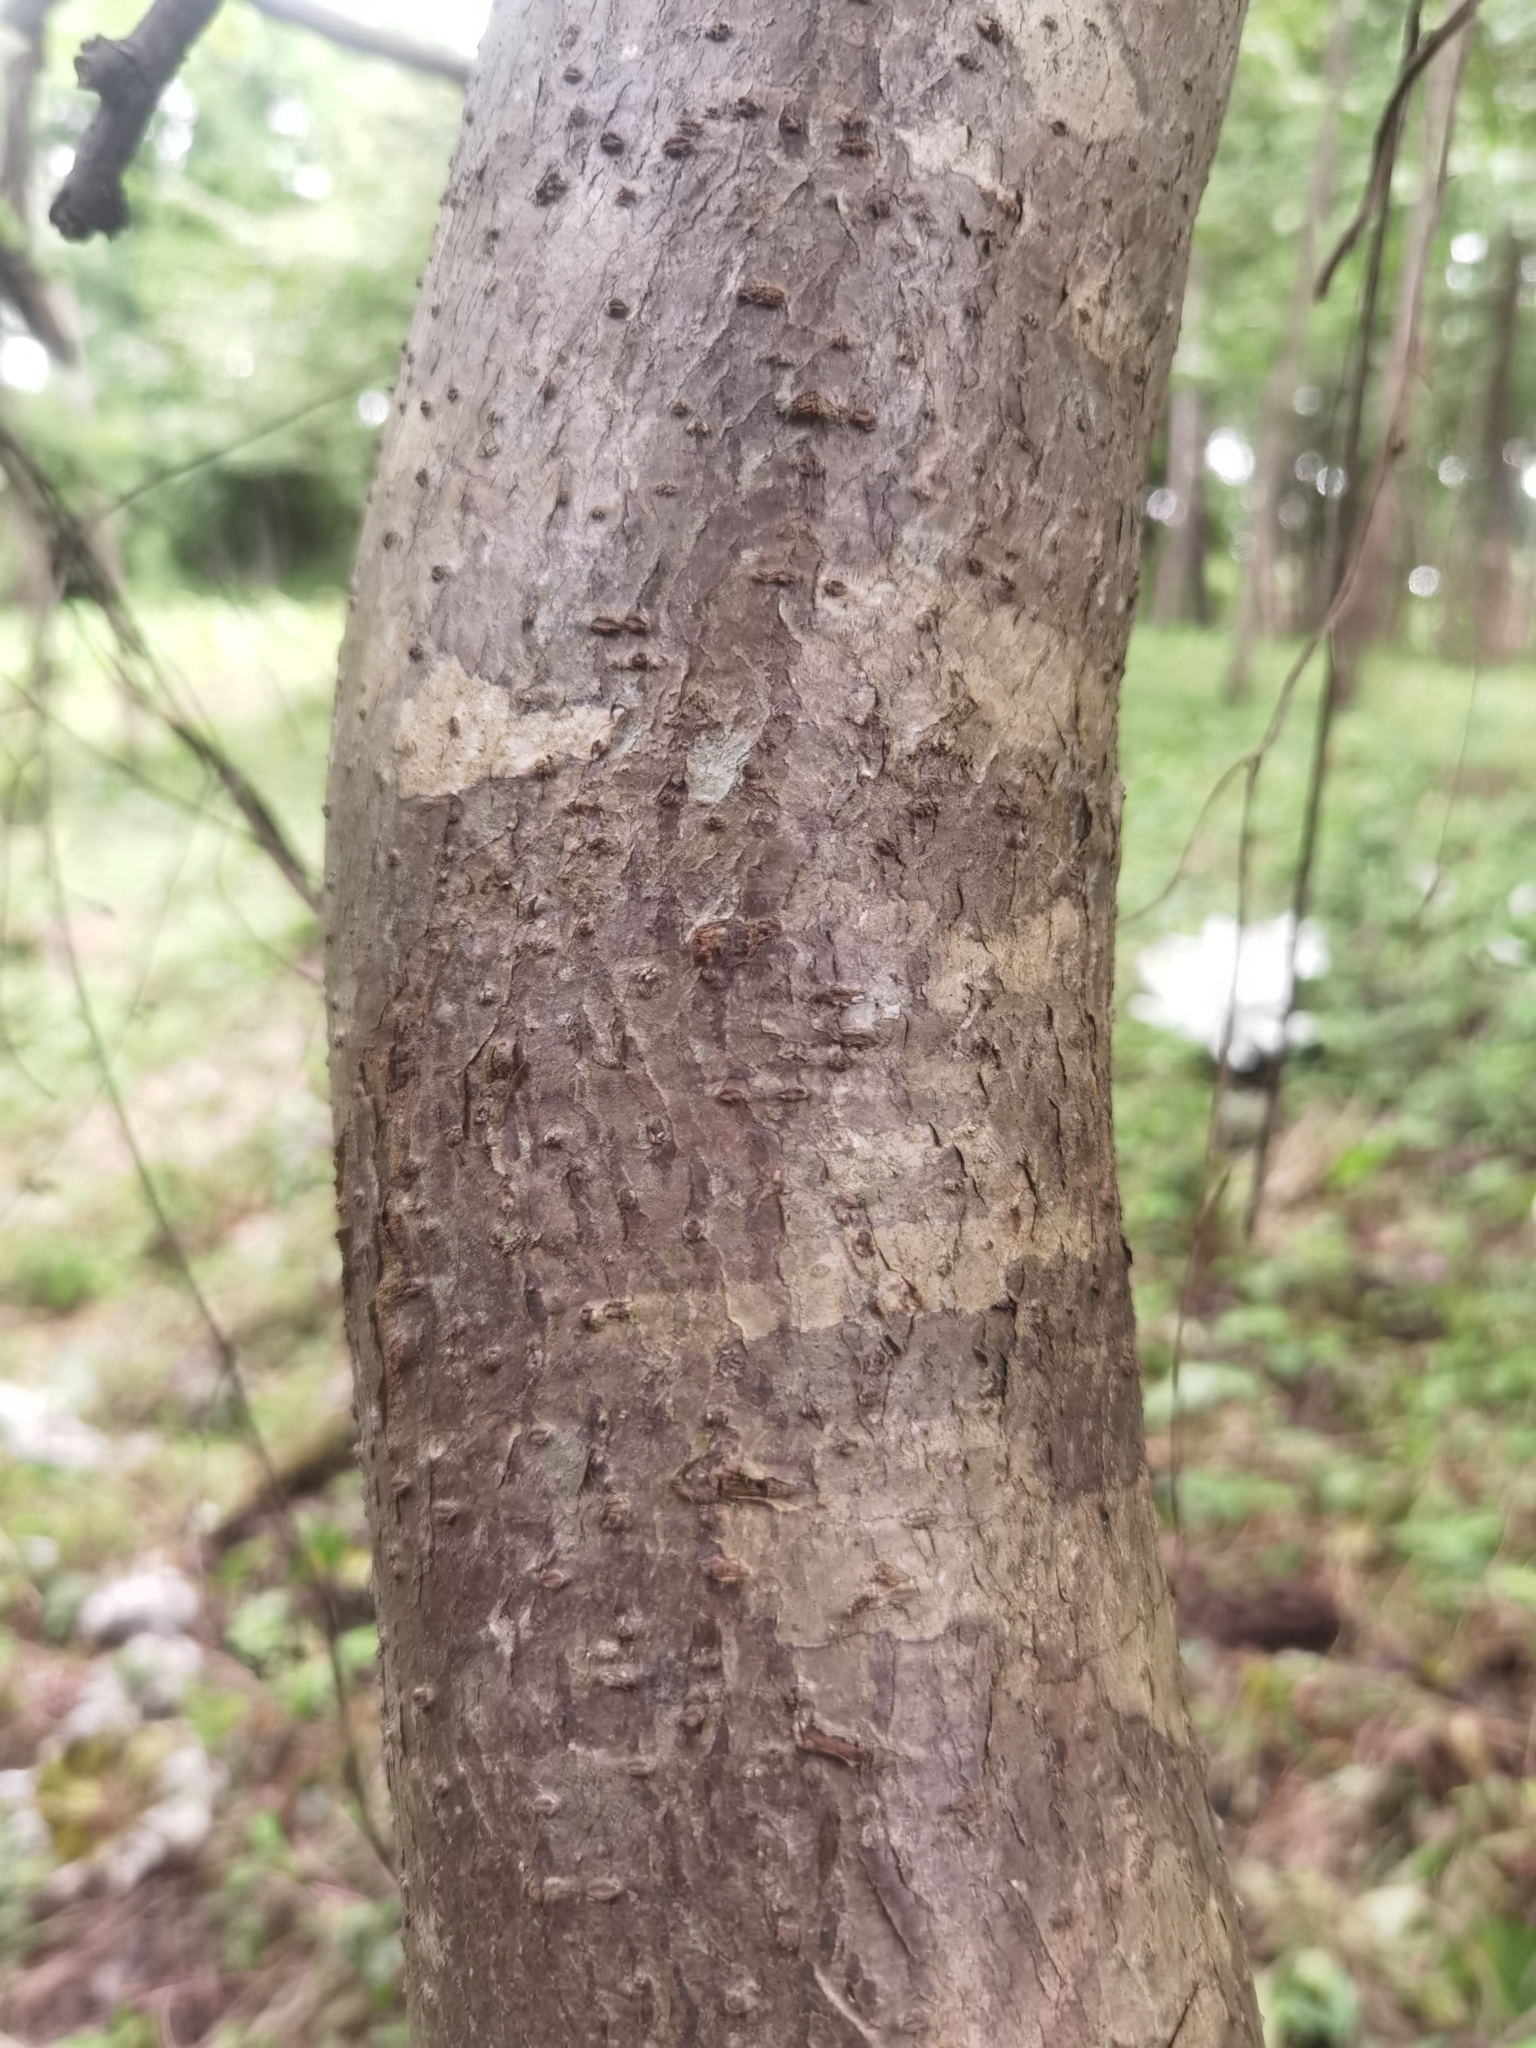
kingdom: Plantae
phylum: Tracheophyta
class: Magnoliopsida
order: Laurales
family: Hernandiaceae
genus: Gyrocarpus
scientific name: Gyrocarpus jatrophifolius
